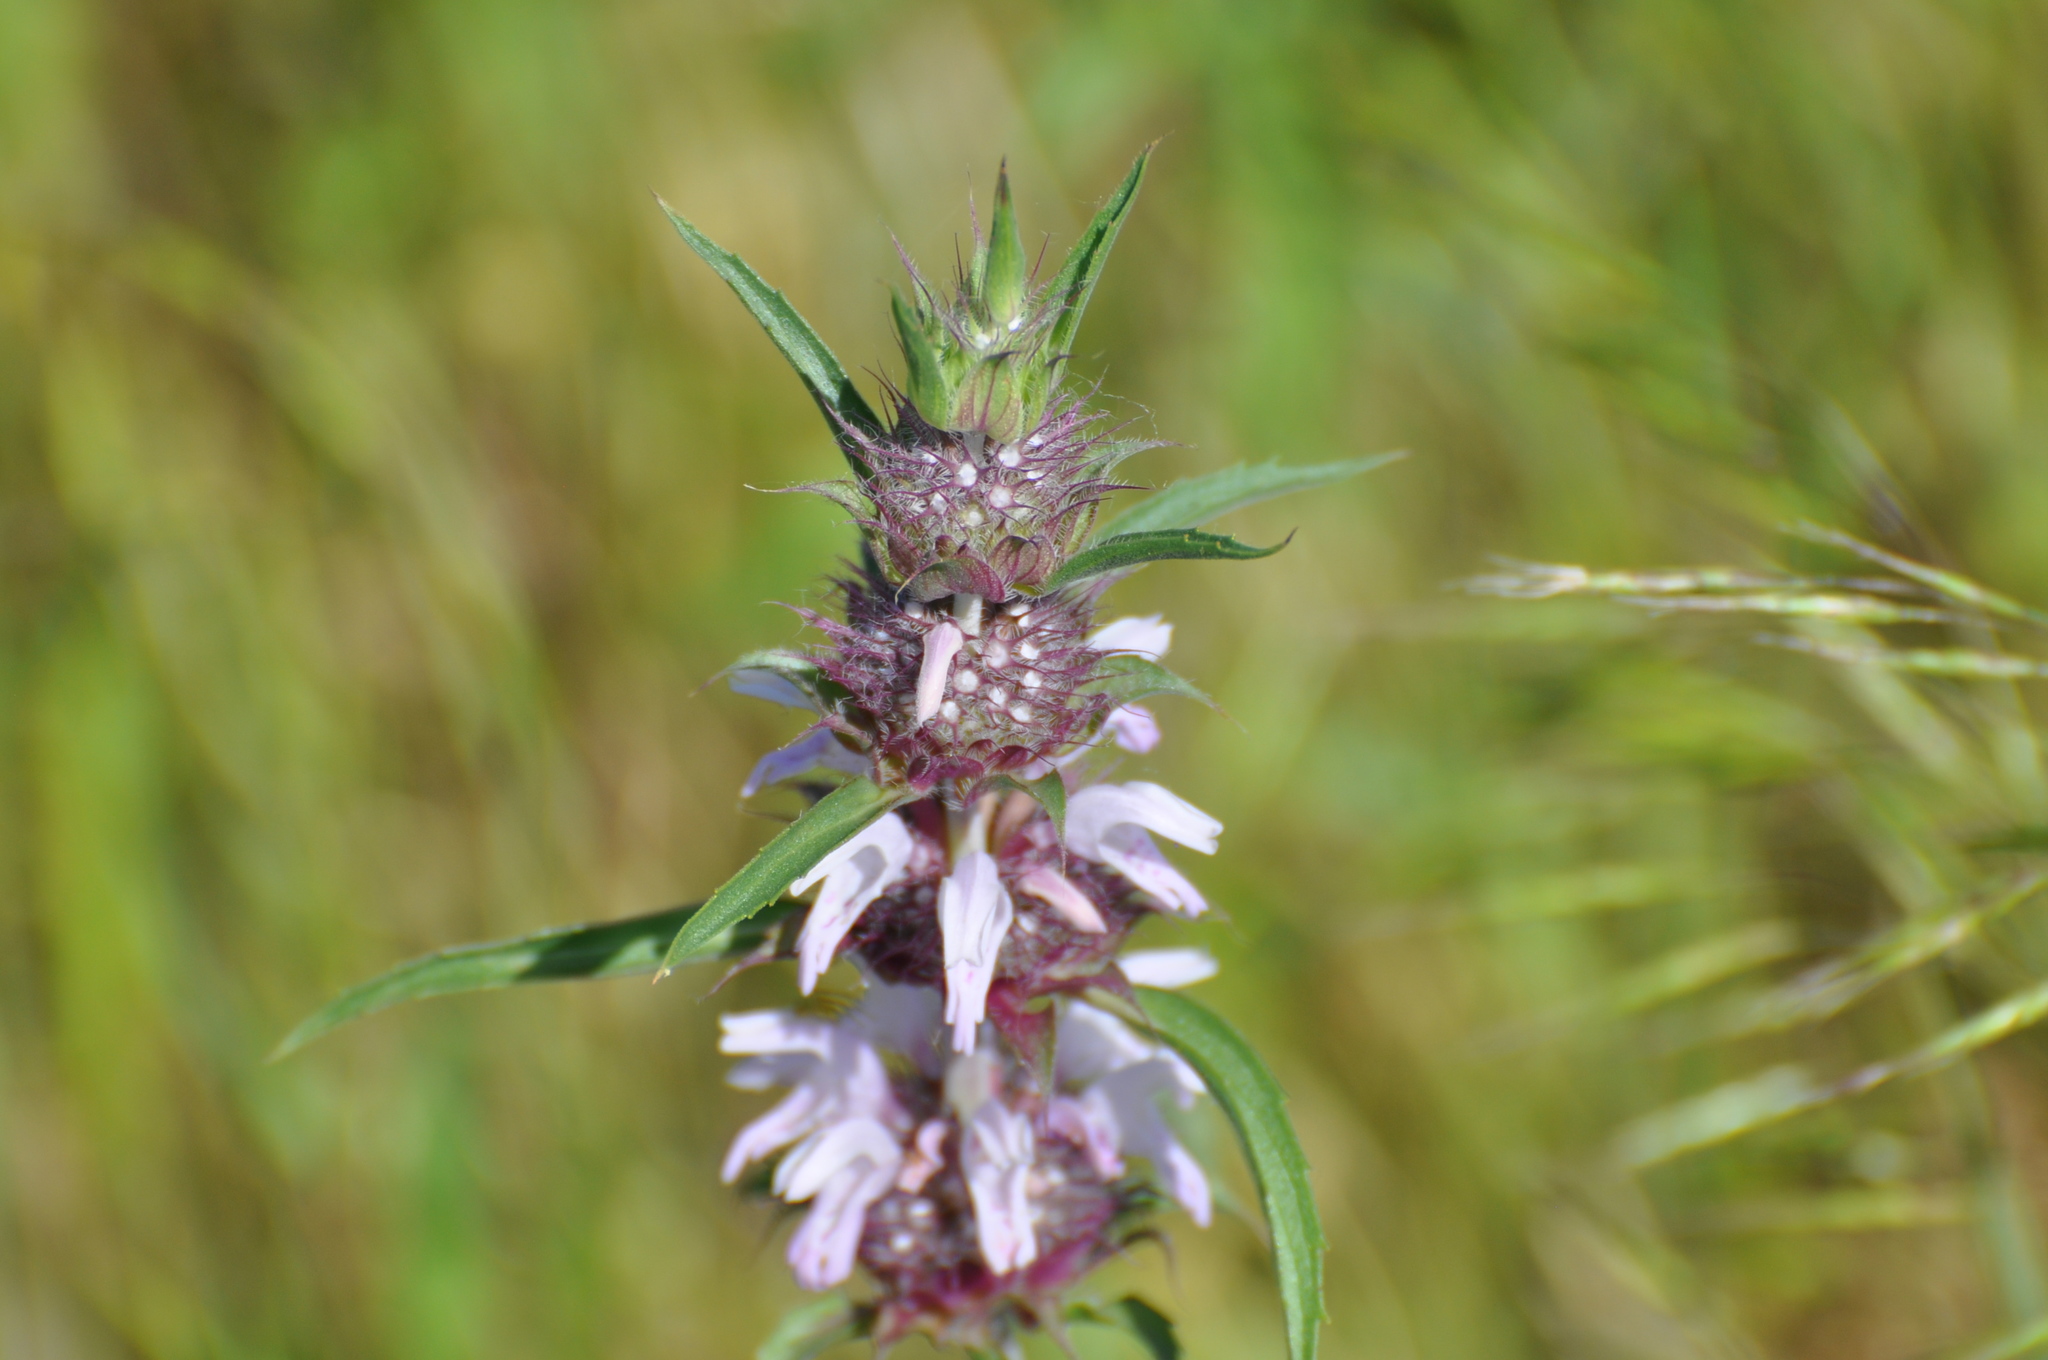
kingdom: Plantae
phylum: Tracheophyta
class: Magnoliopsida
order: Lamiales
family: Lamiaceae
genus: Monarda
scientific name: Monarda clinopodioides
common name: Basil beebalm
